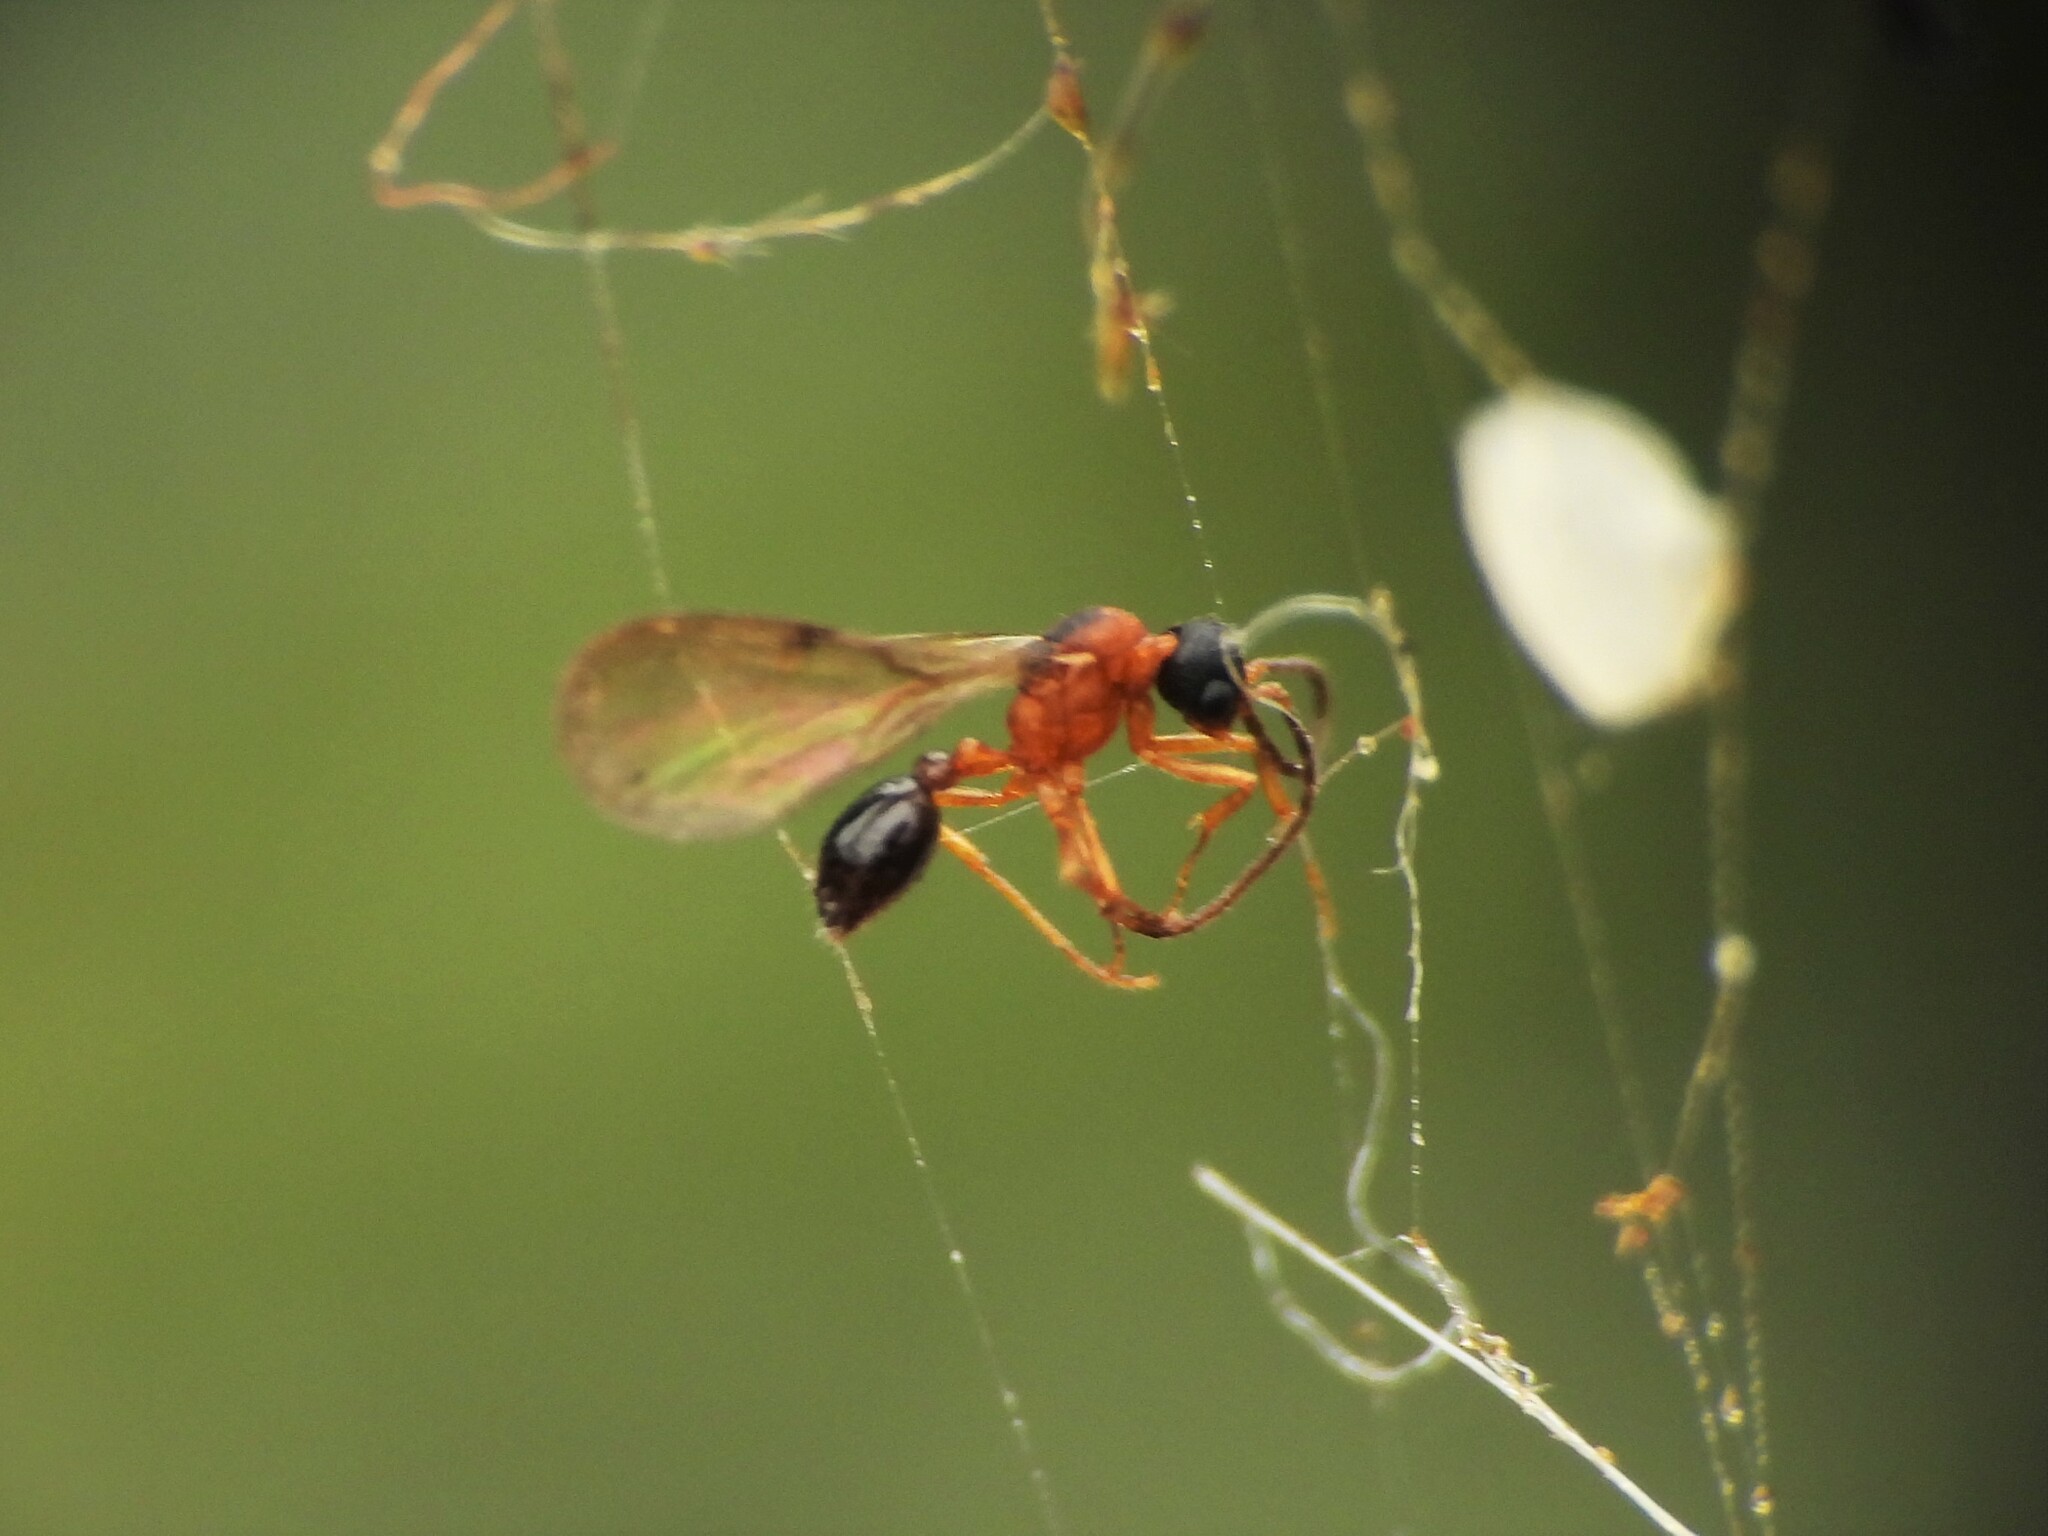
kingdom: Animalia
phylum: Arthropoda
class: Insecta
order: Hymenoptera
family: Formicidae
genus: Pyramica
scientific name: Pyramica argiola
